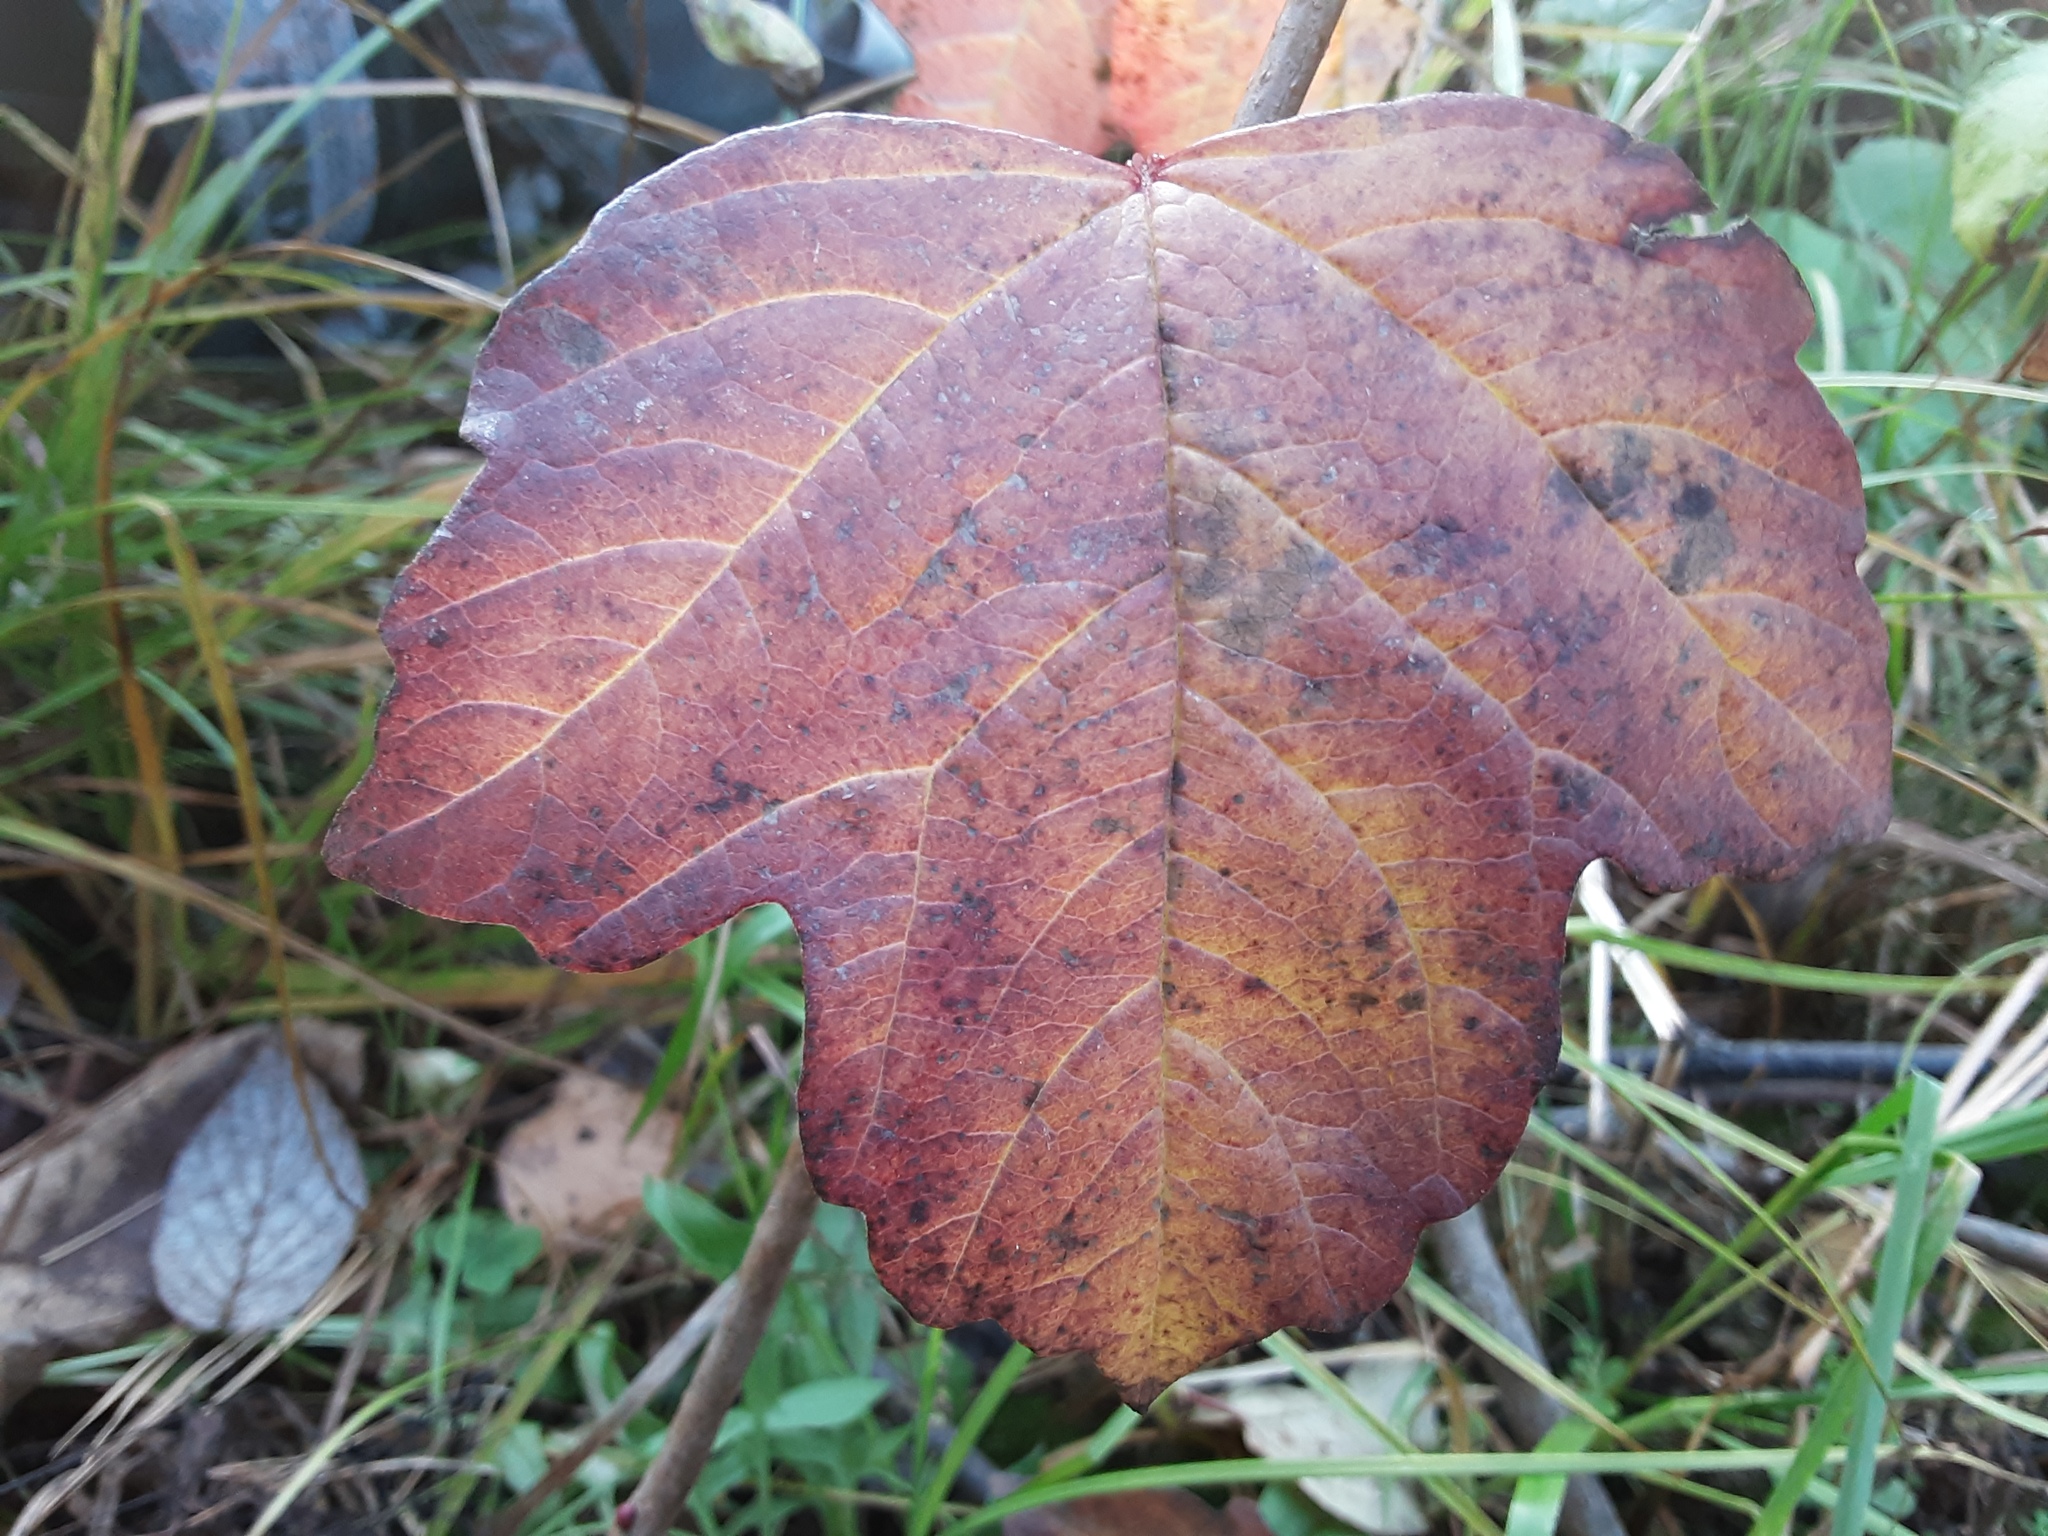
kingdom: Plantae
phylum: Tracheophyta
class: Magnoliopsida
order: Dipsacales
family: Viburnaceae
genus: Viburnum
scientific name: Viburnum opulus
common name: Guelder-rose
